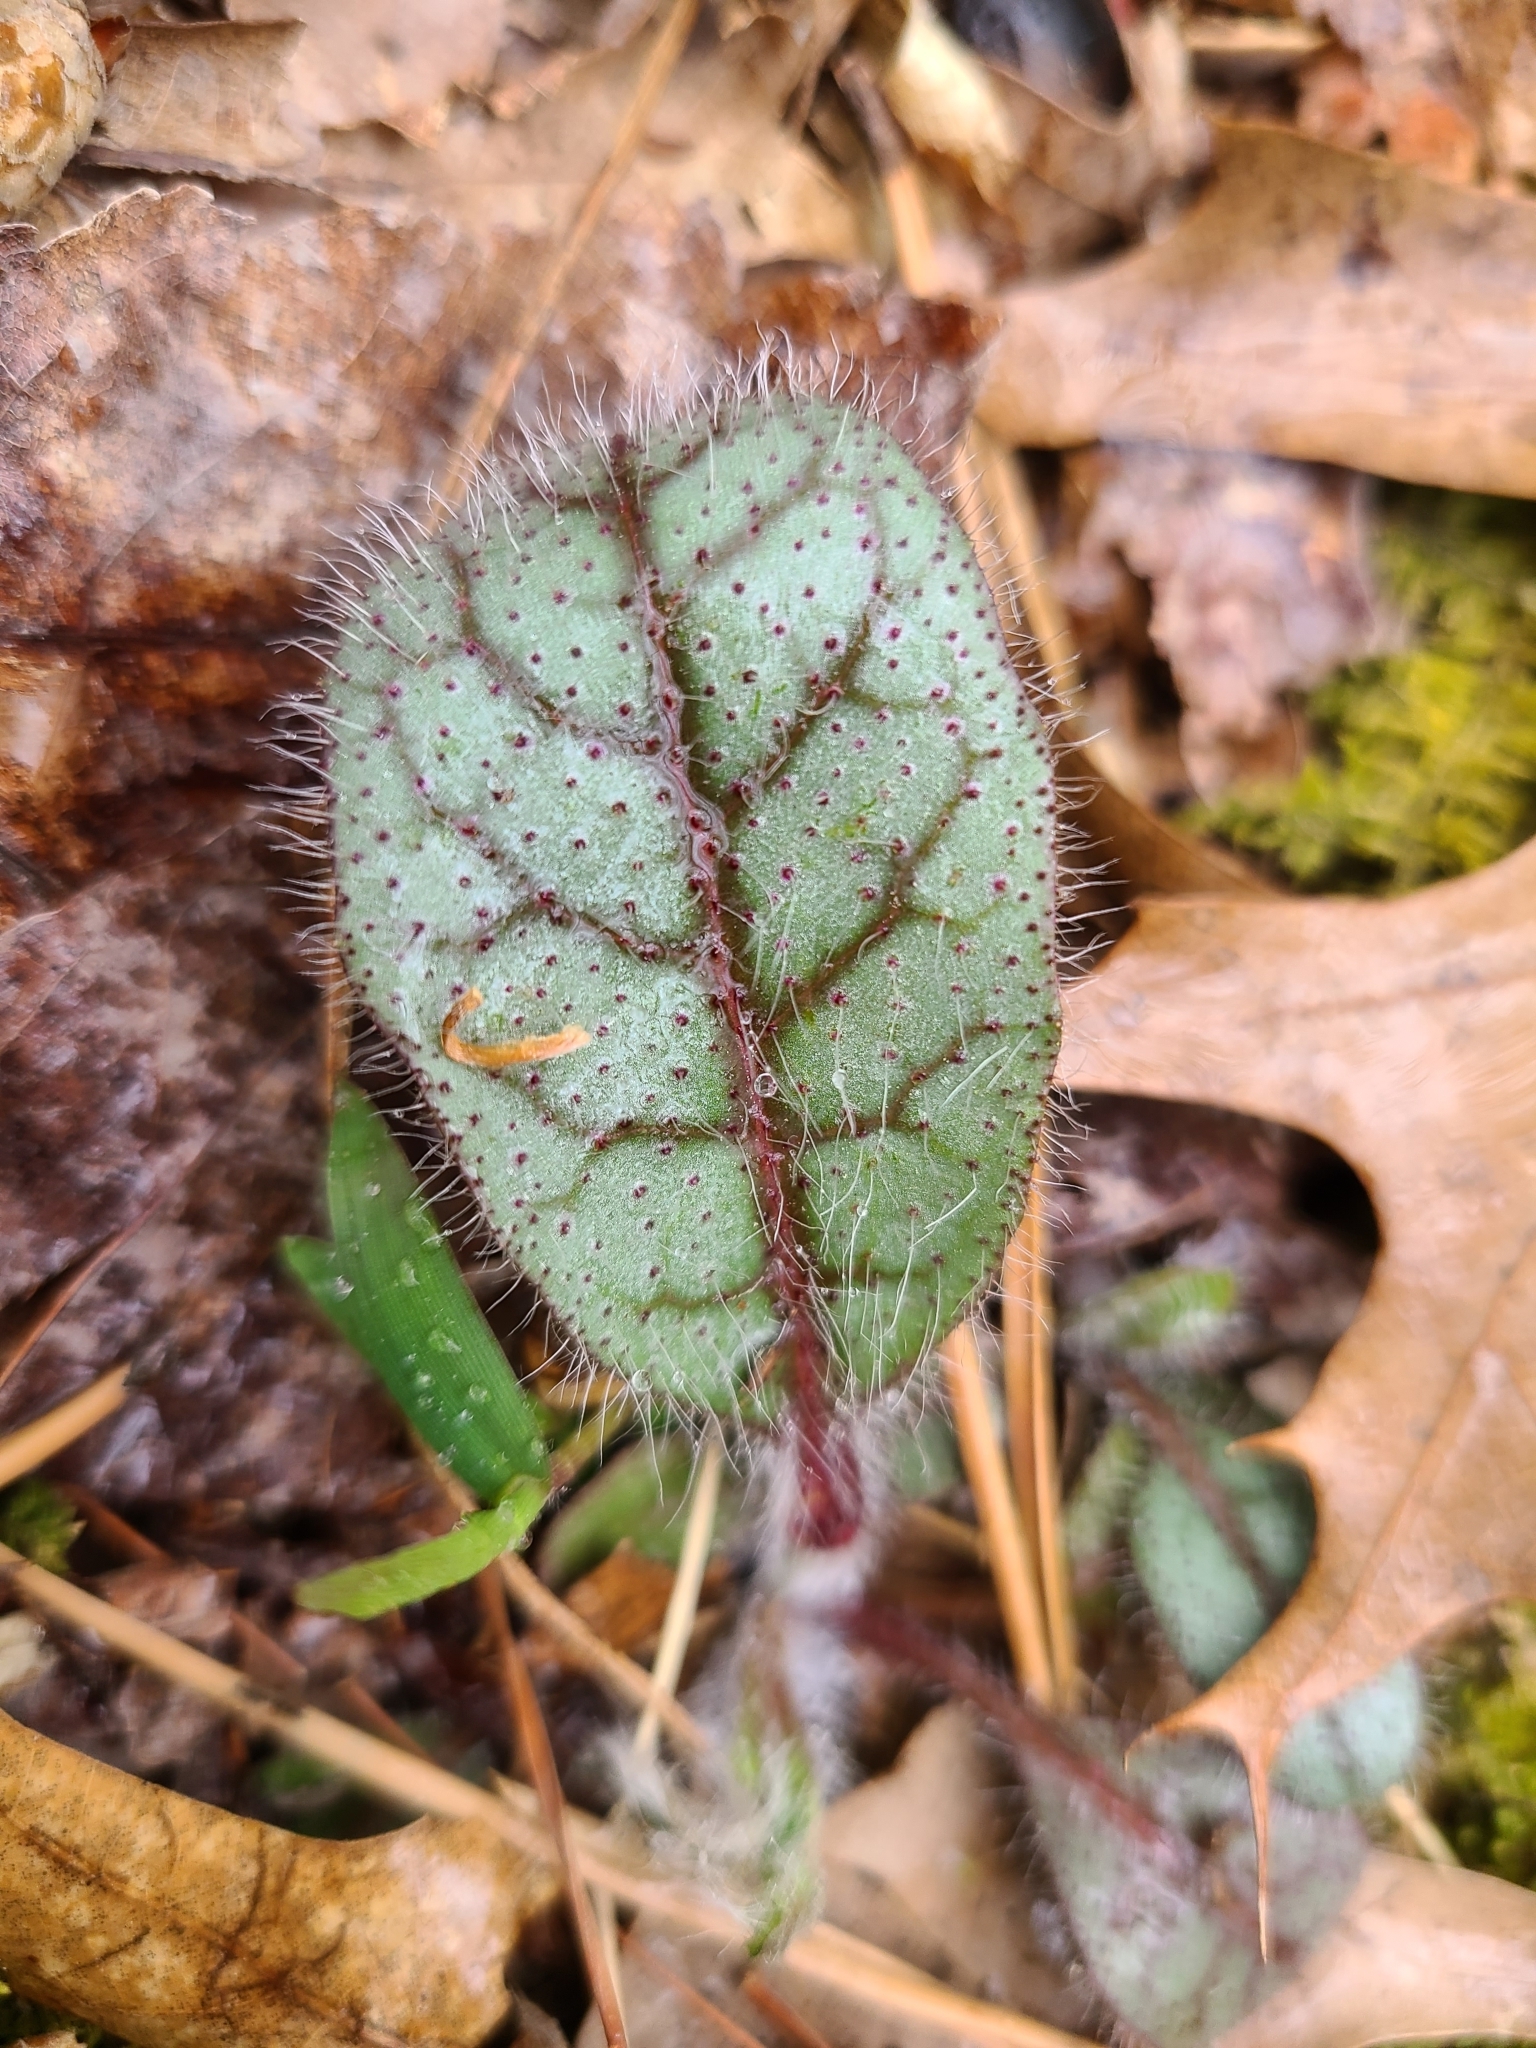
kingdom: Plantae
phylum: Tracheophyta
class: Magnoliopsida
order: Asterales
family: Asteraceae
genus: Hieracium
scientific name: Hieracium venosum
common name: Rattlesnake hawkweed
